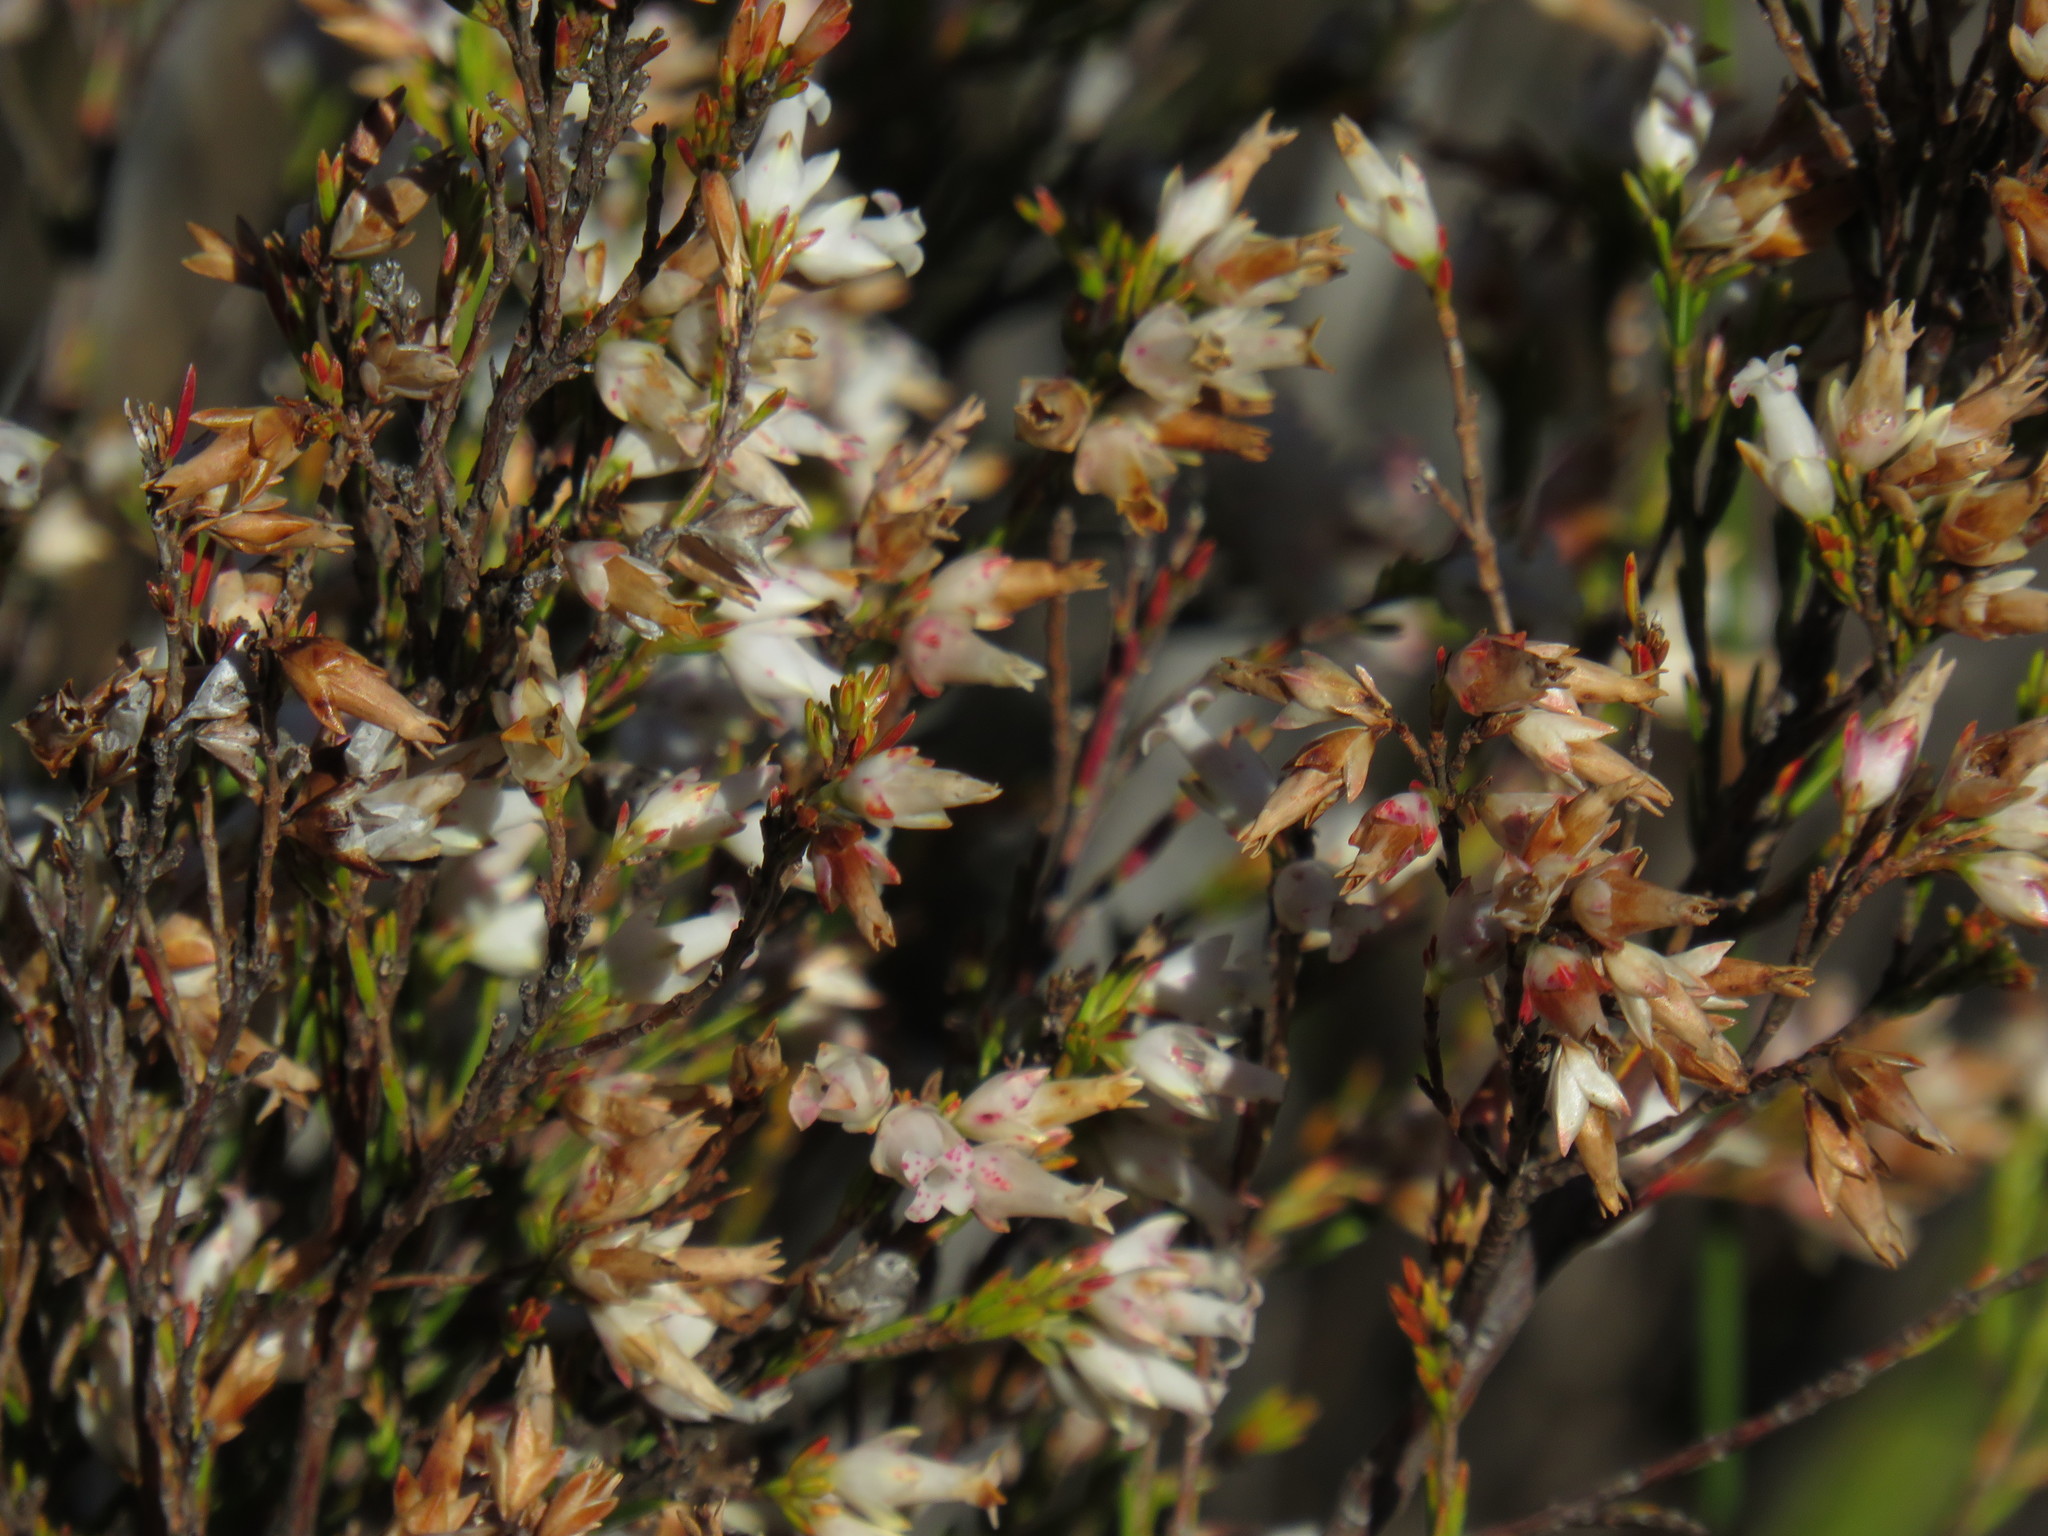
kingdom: Plantae
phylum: Tracheophyta
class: Magnoliopsida
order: Ericales
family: Ericaceae
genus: Erica
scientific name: Erica lutea
